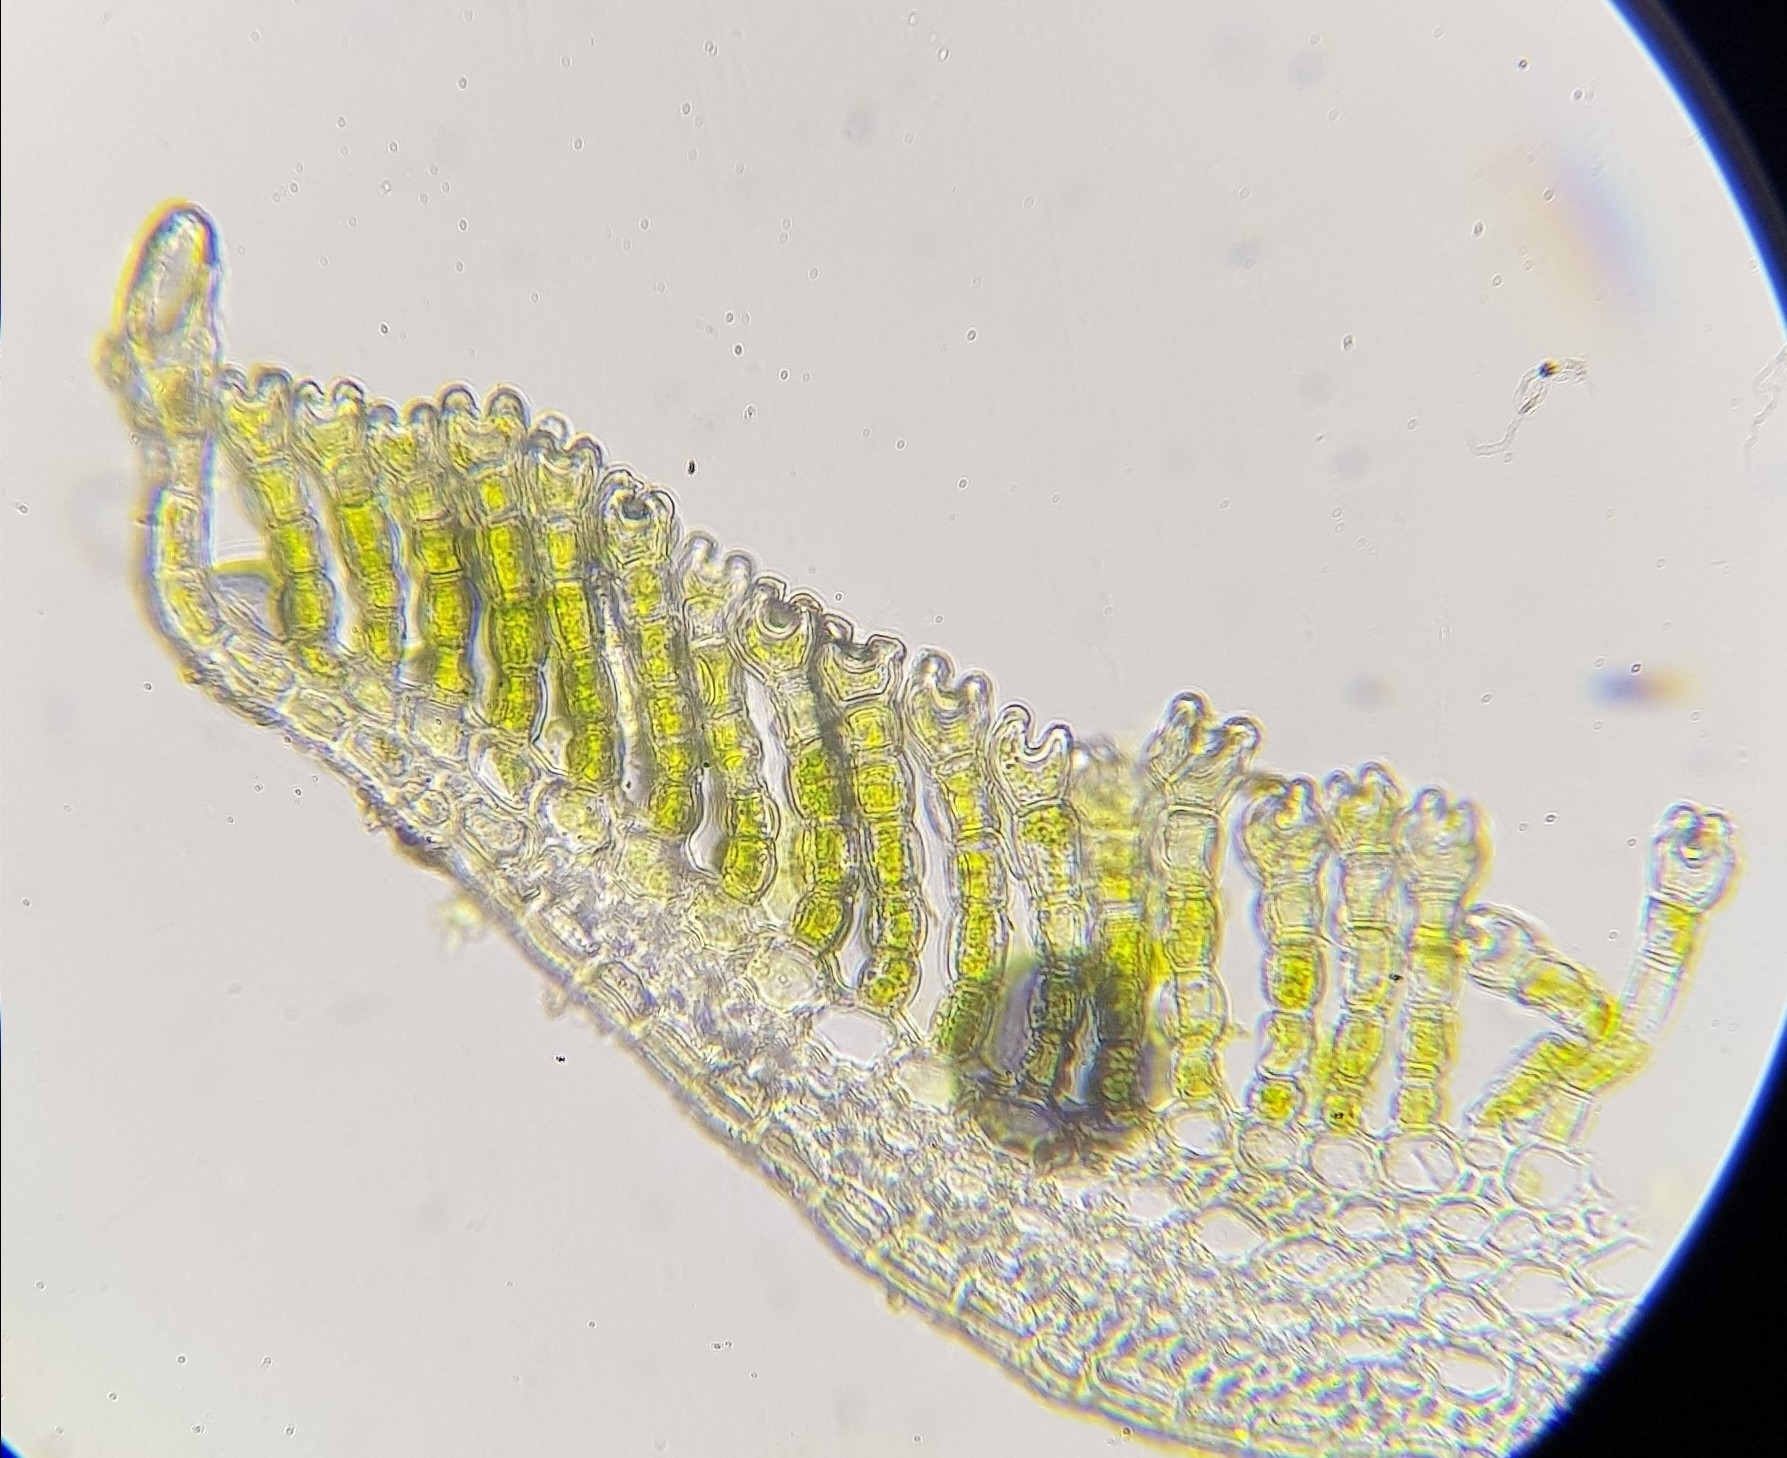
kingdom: Plantae
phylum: Bryophyta
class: Polytrichopsida
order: Polytrichales
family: Polytrichaceae
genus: Polytrichum
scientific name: Polytrichum commune
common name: Common haircap
